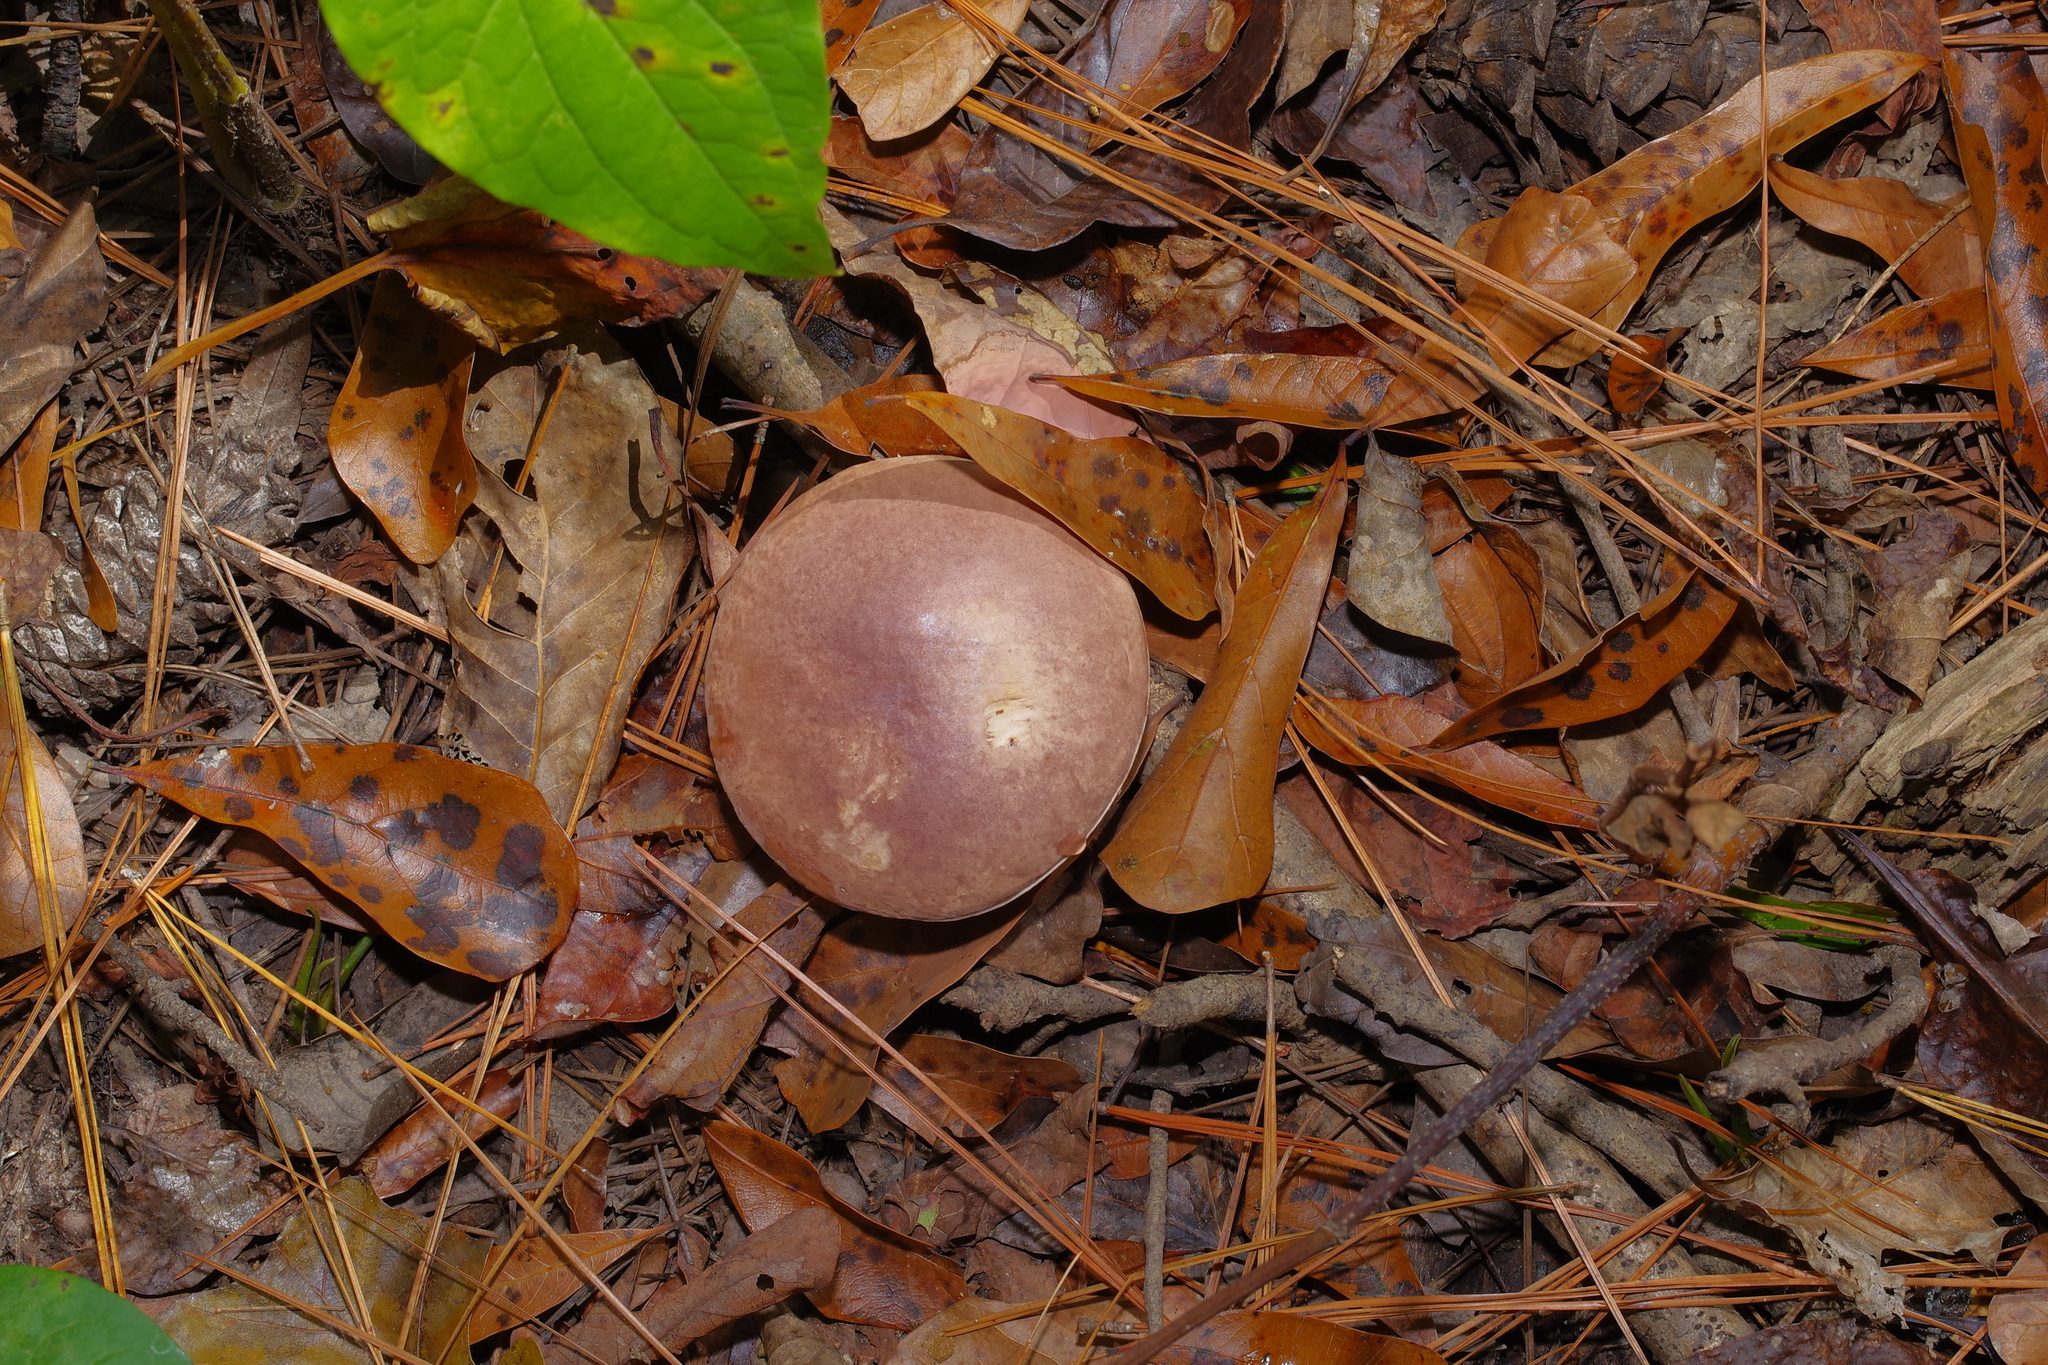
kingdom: Fungi
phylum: Basidiomycota
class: Agaricomycetes
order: Boletales
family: Boletaceae
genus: Tylopilus
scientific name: Tylopilus williamsii
